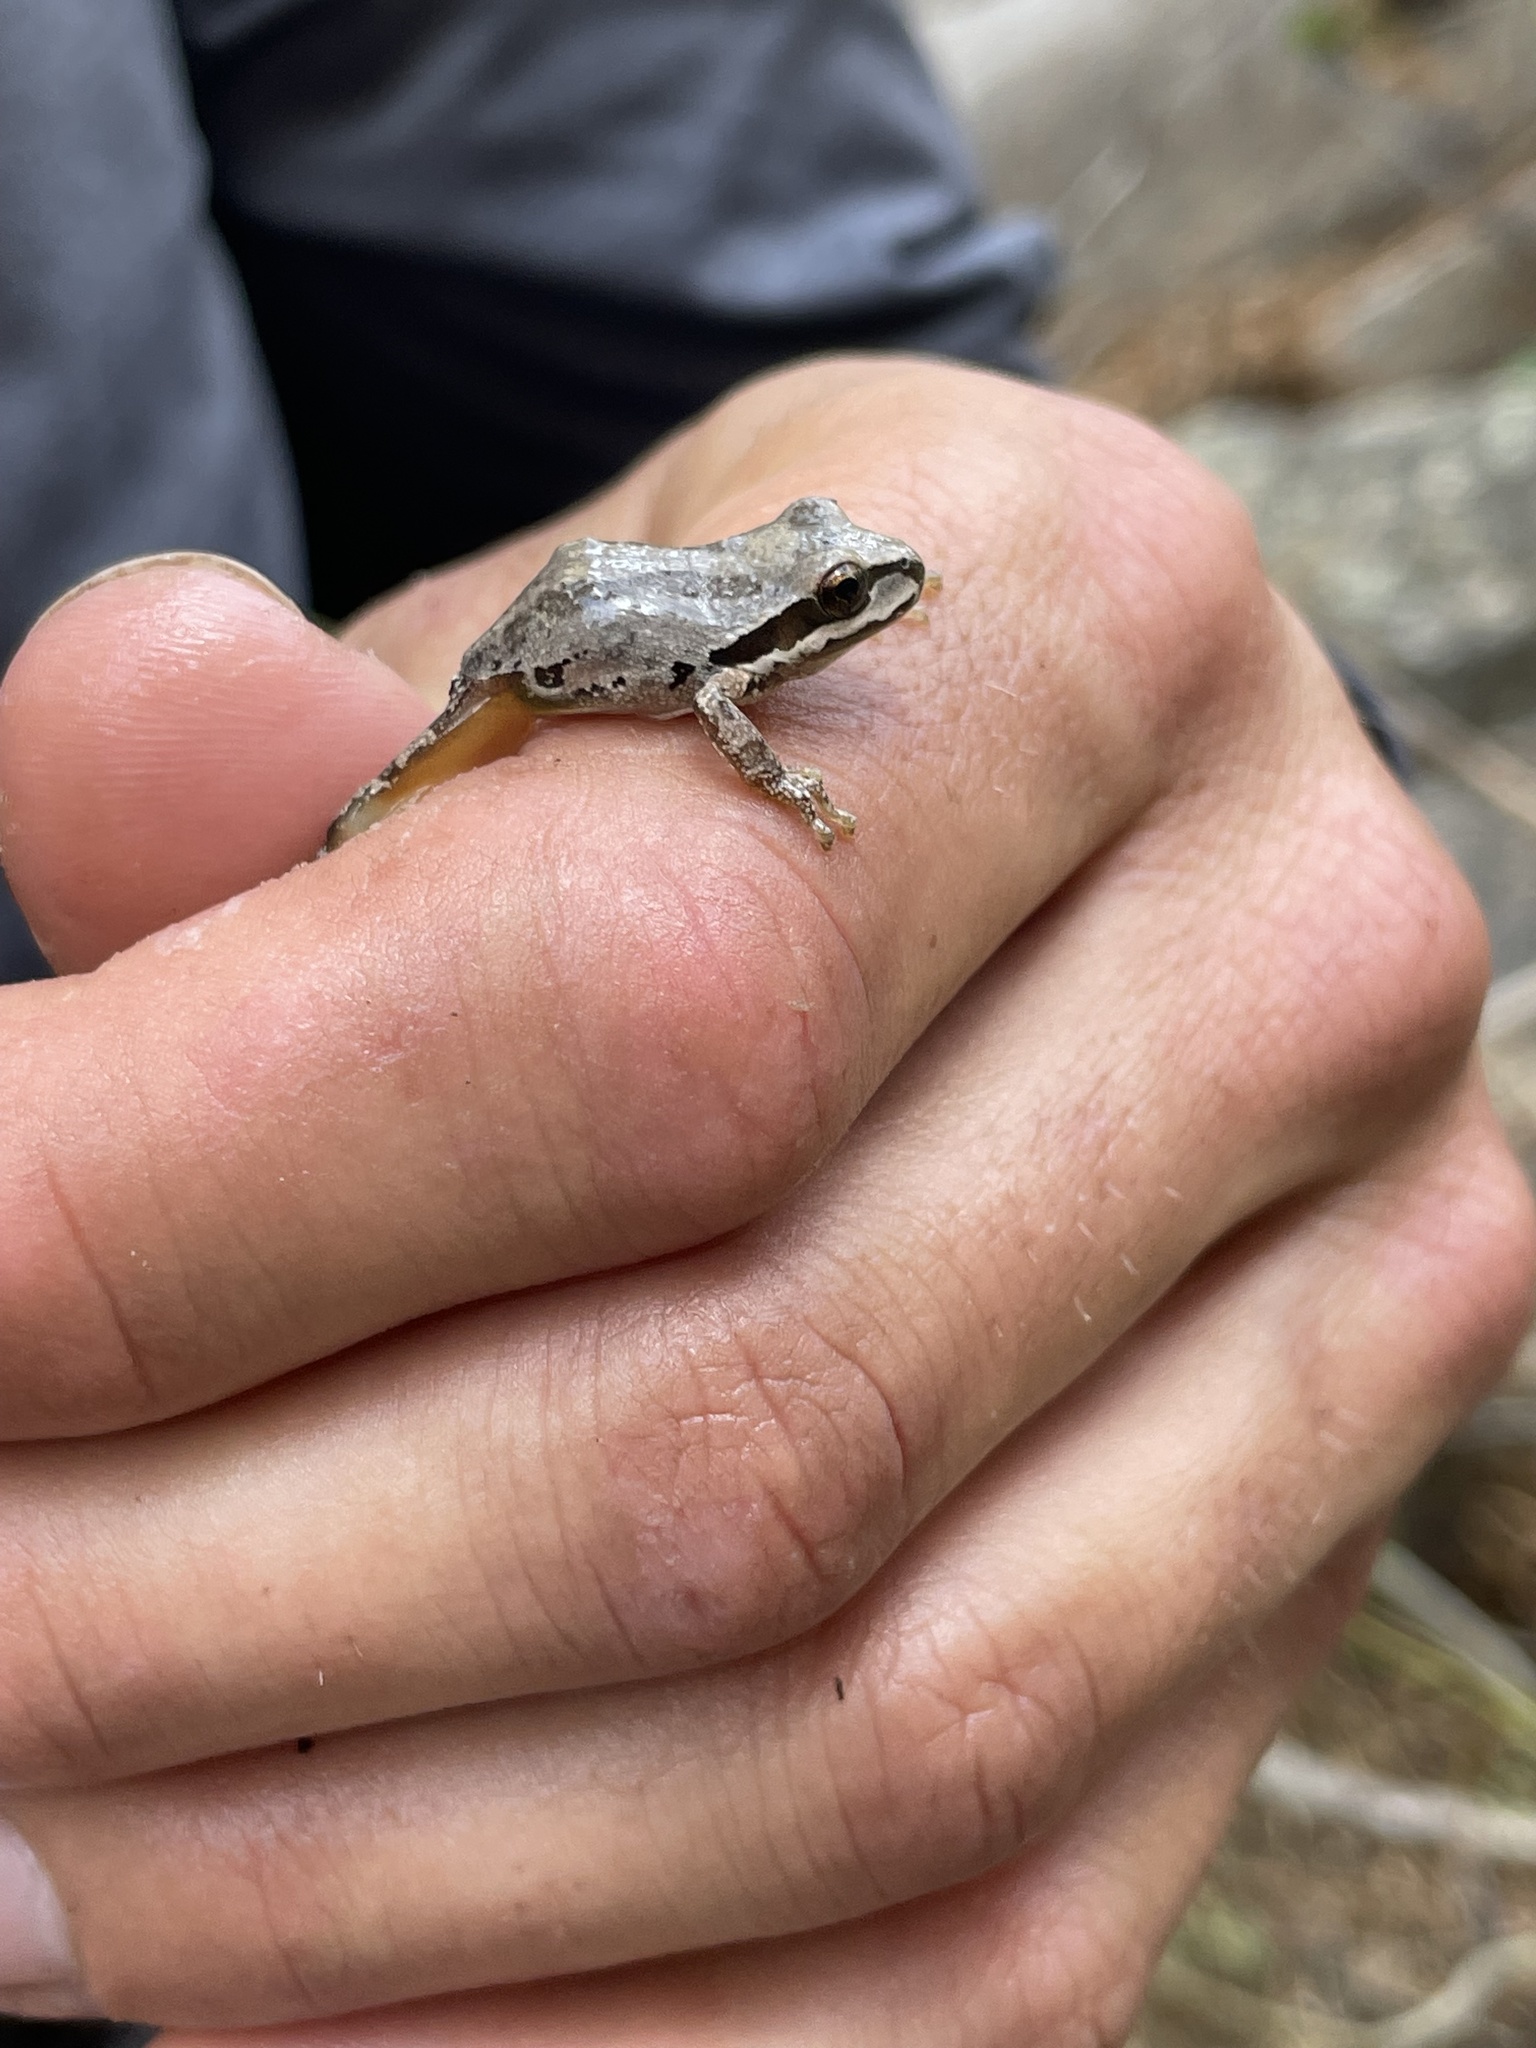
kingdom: Animalia
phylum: Chordata
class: Amphibia
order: Anura
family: Hylidae
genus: Pseudacris
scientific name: Pseudacris regilla
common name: Pacific chorus frog
